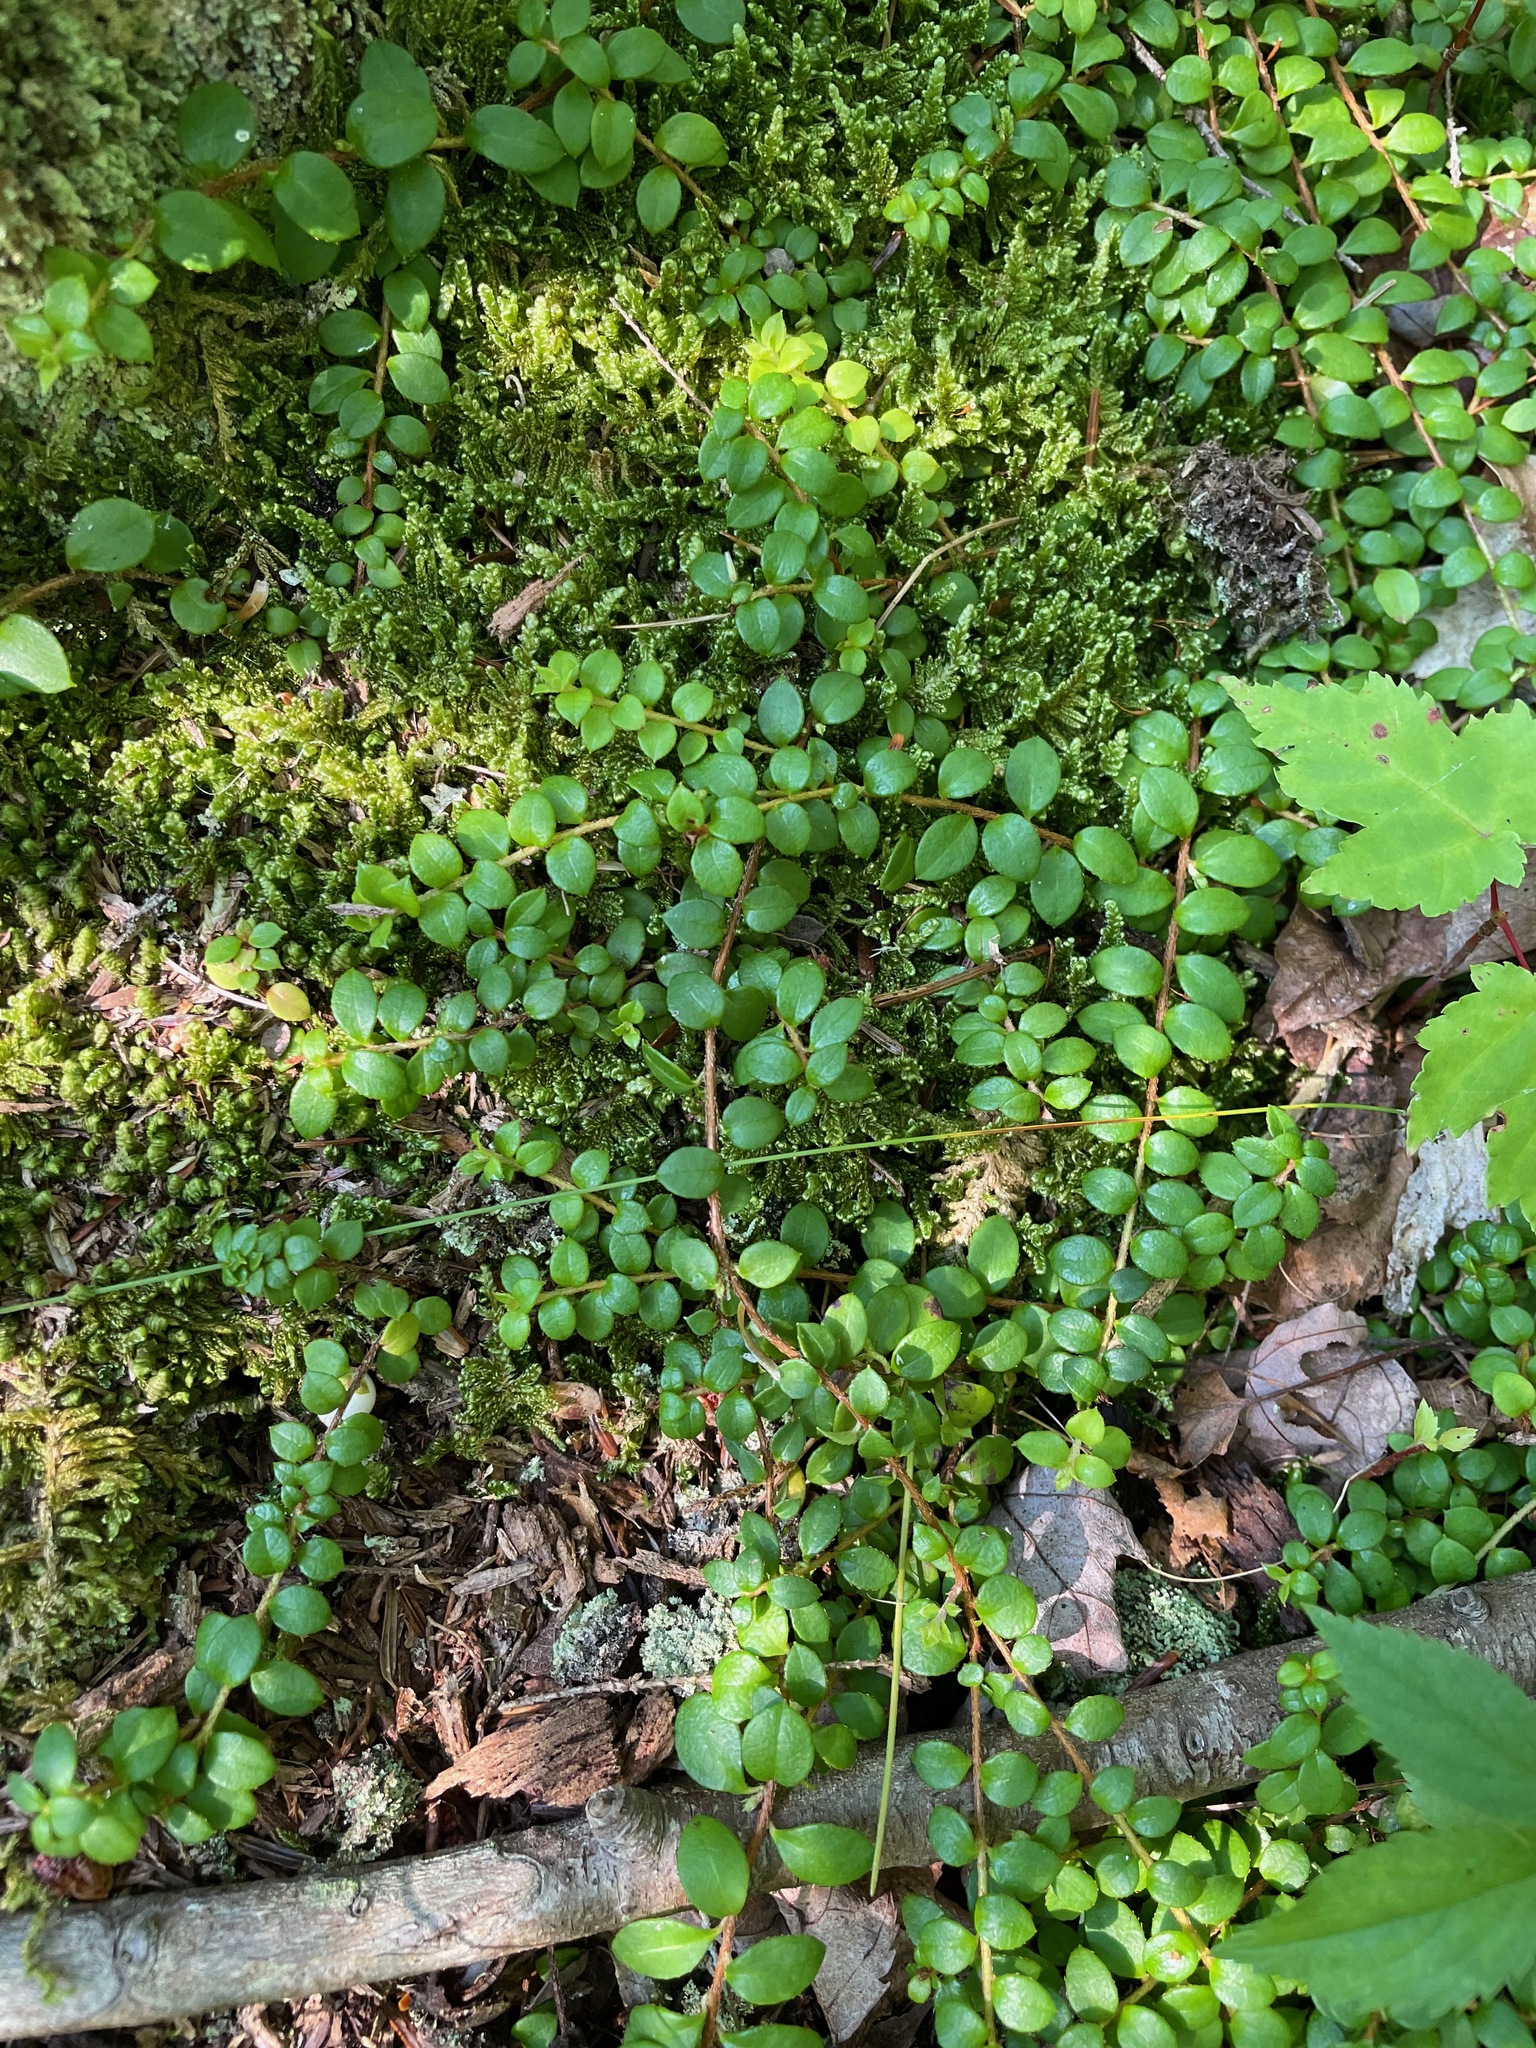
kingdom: Plantae
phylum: Tracheophyta
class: Magnoliopsida
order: Ericales
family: Ericaceae
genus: Gaultheria
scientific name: Gaultheria hispidula
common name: Cancer wintergreen
